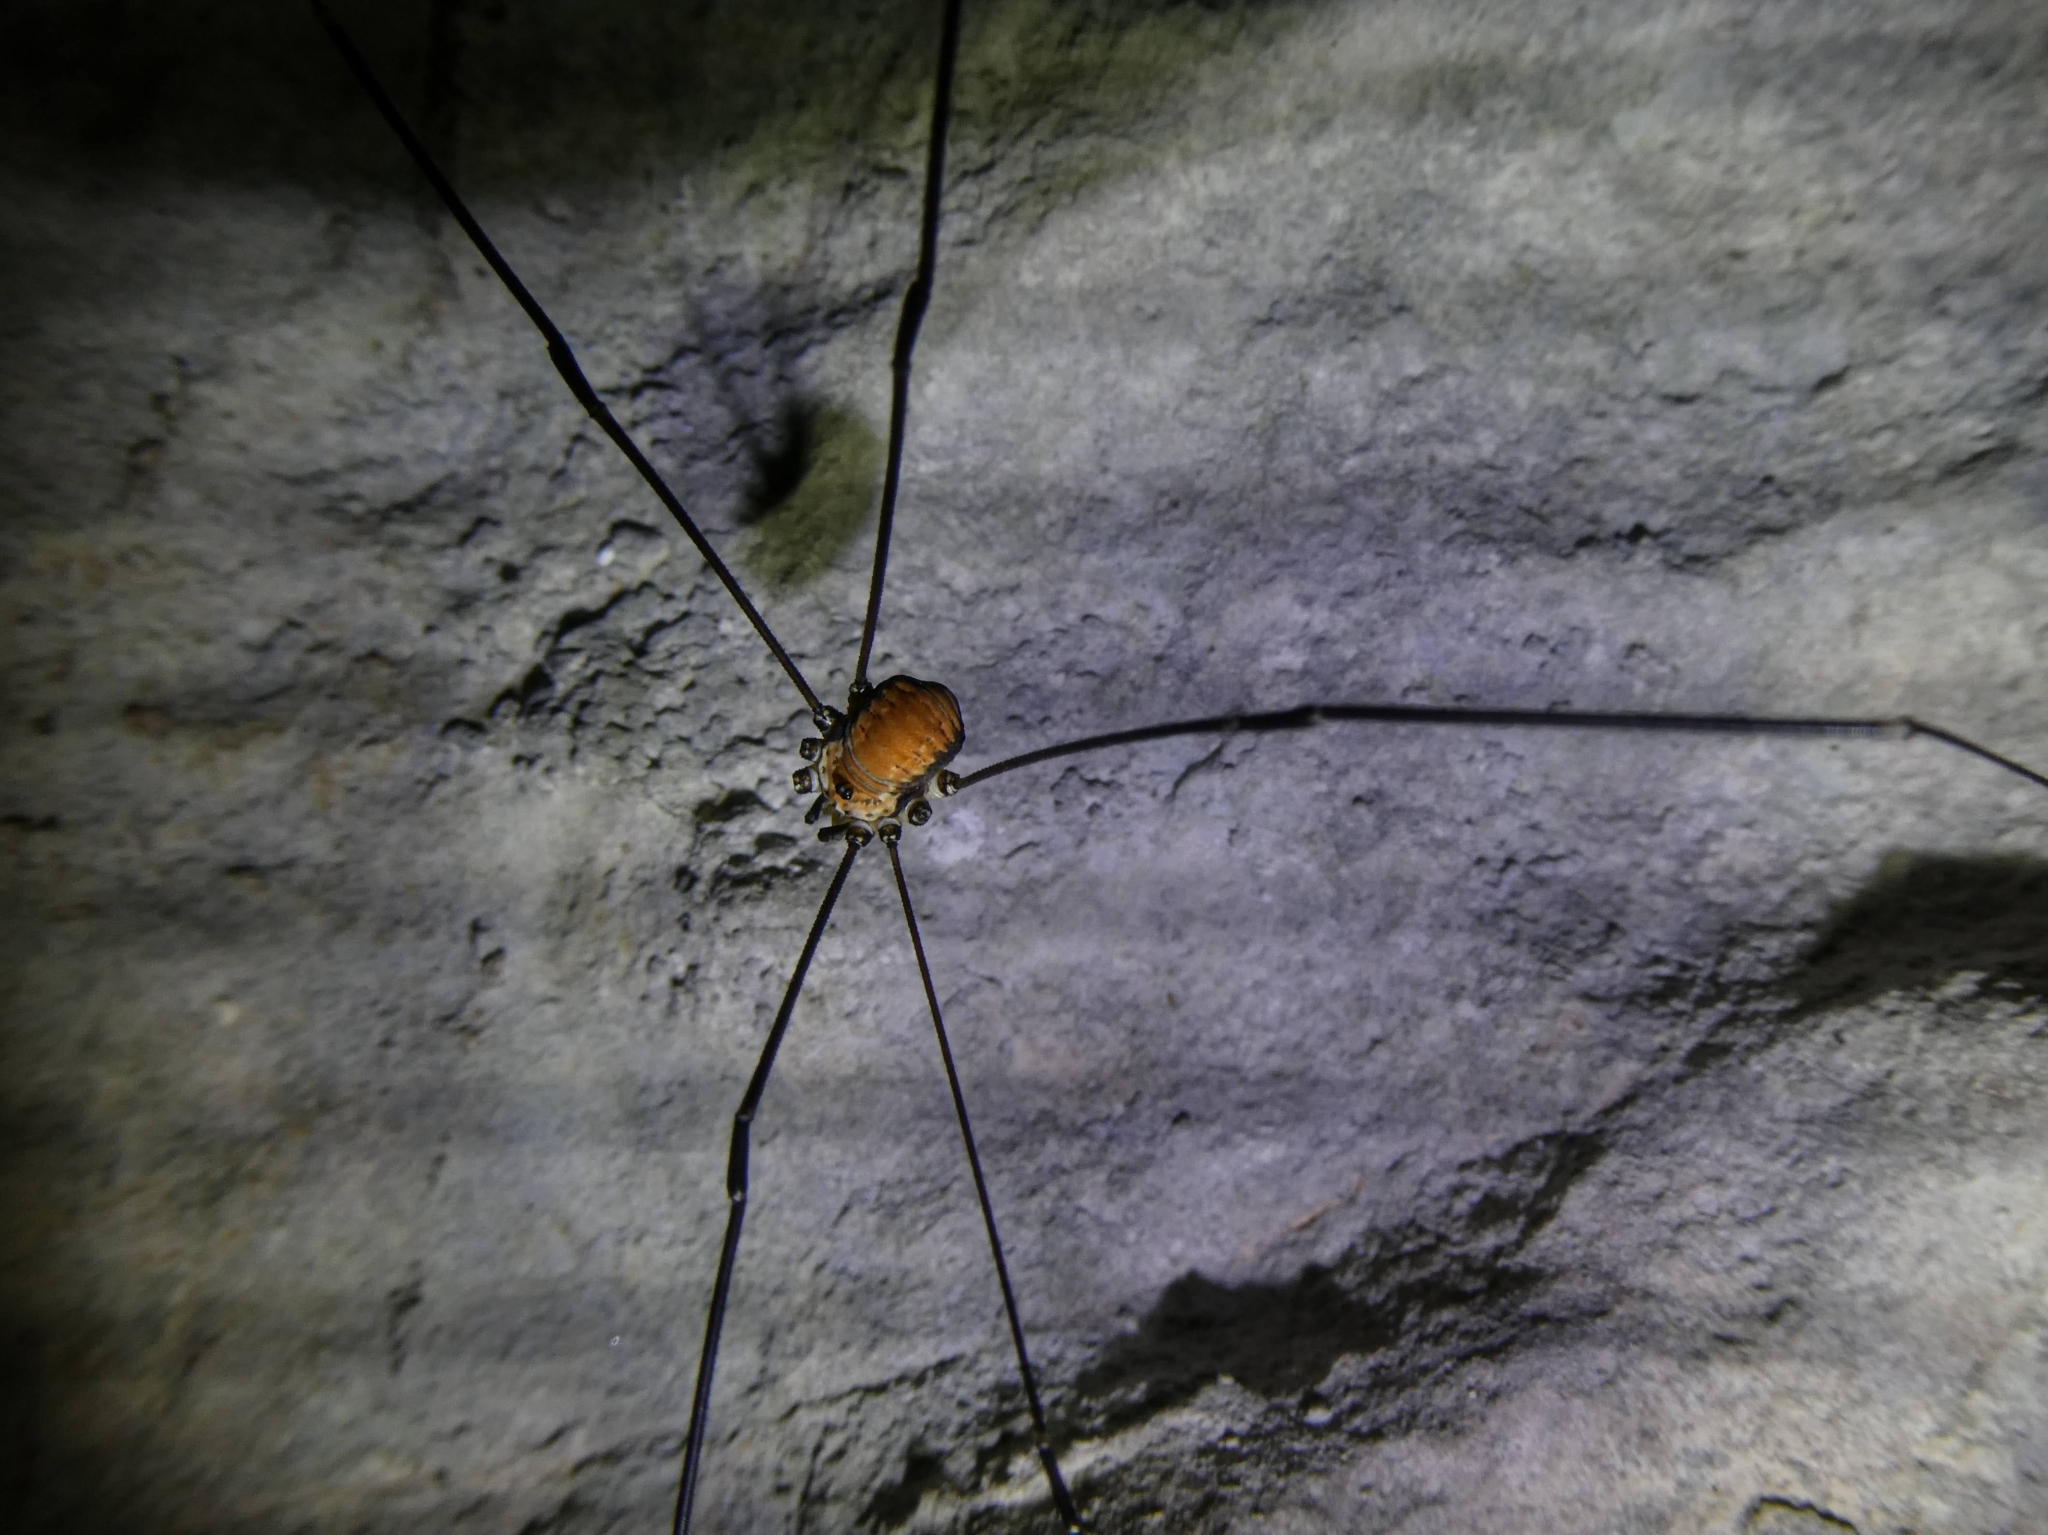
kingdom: Animalia
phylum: Arthropoda
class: Arachnida
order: Opiliones
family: Sclerosomatidae
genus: Leiobunum
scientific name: Leiobunum limbatum
